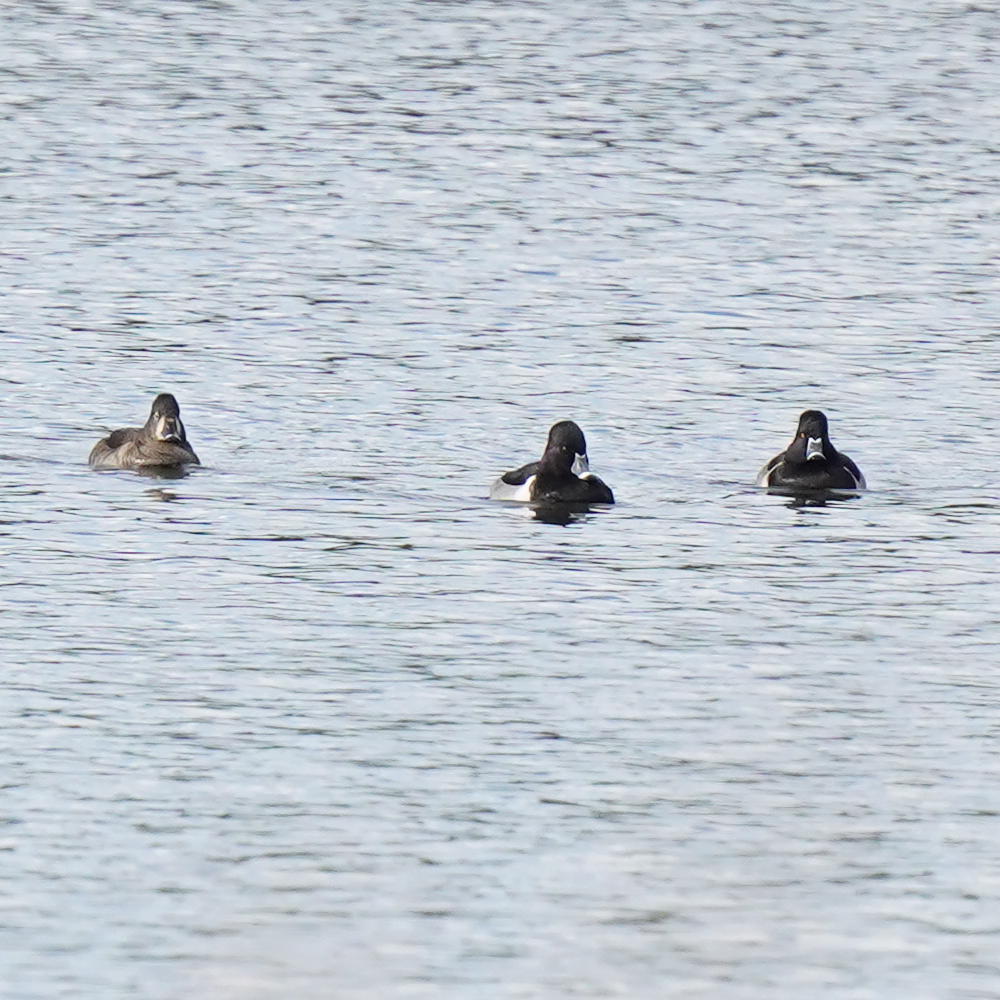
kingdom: Animalia
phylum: Chordata
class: Aves
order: Anseriformes
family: Anatidae
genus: Aythya
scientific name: Aythya collaris
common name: Ring-necked duck
